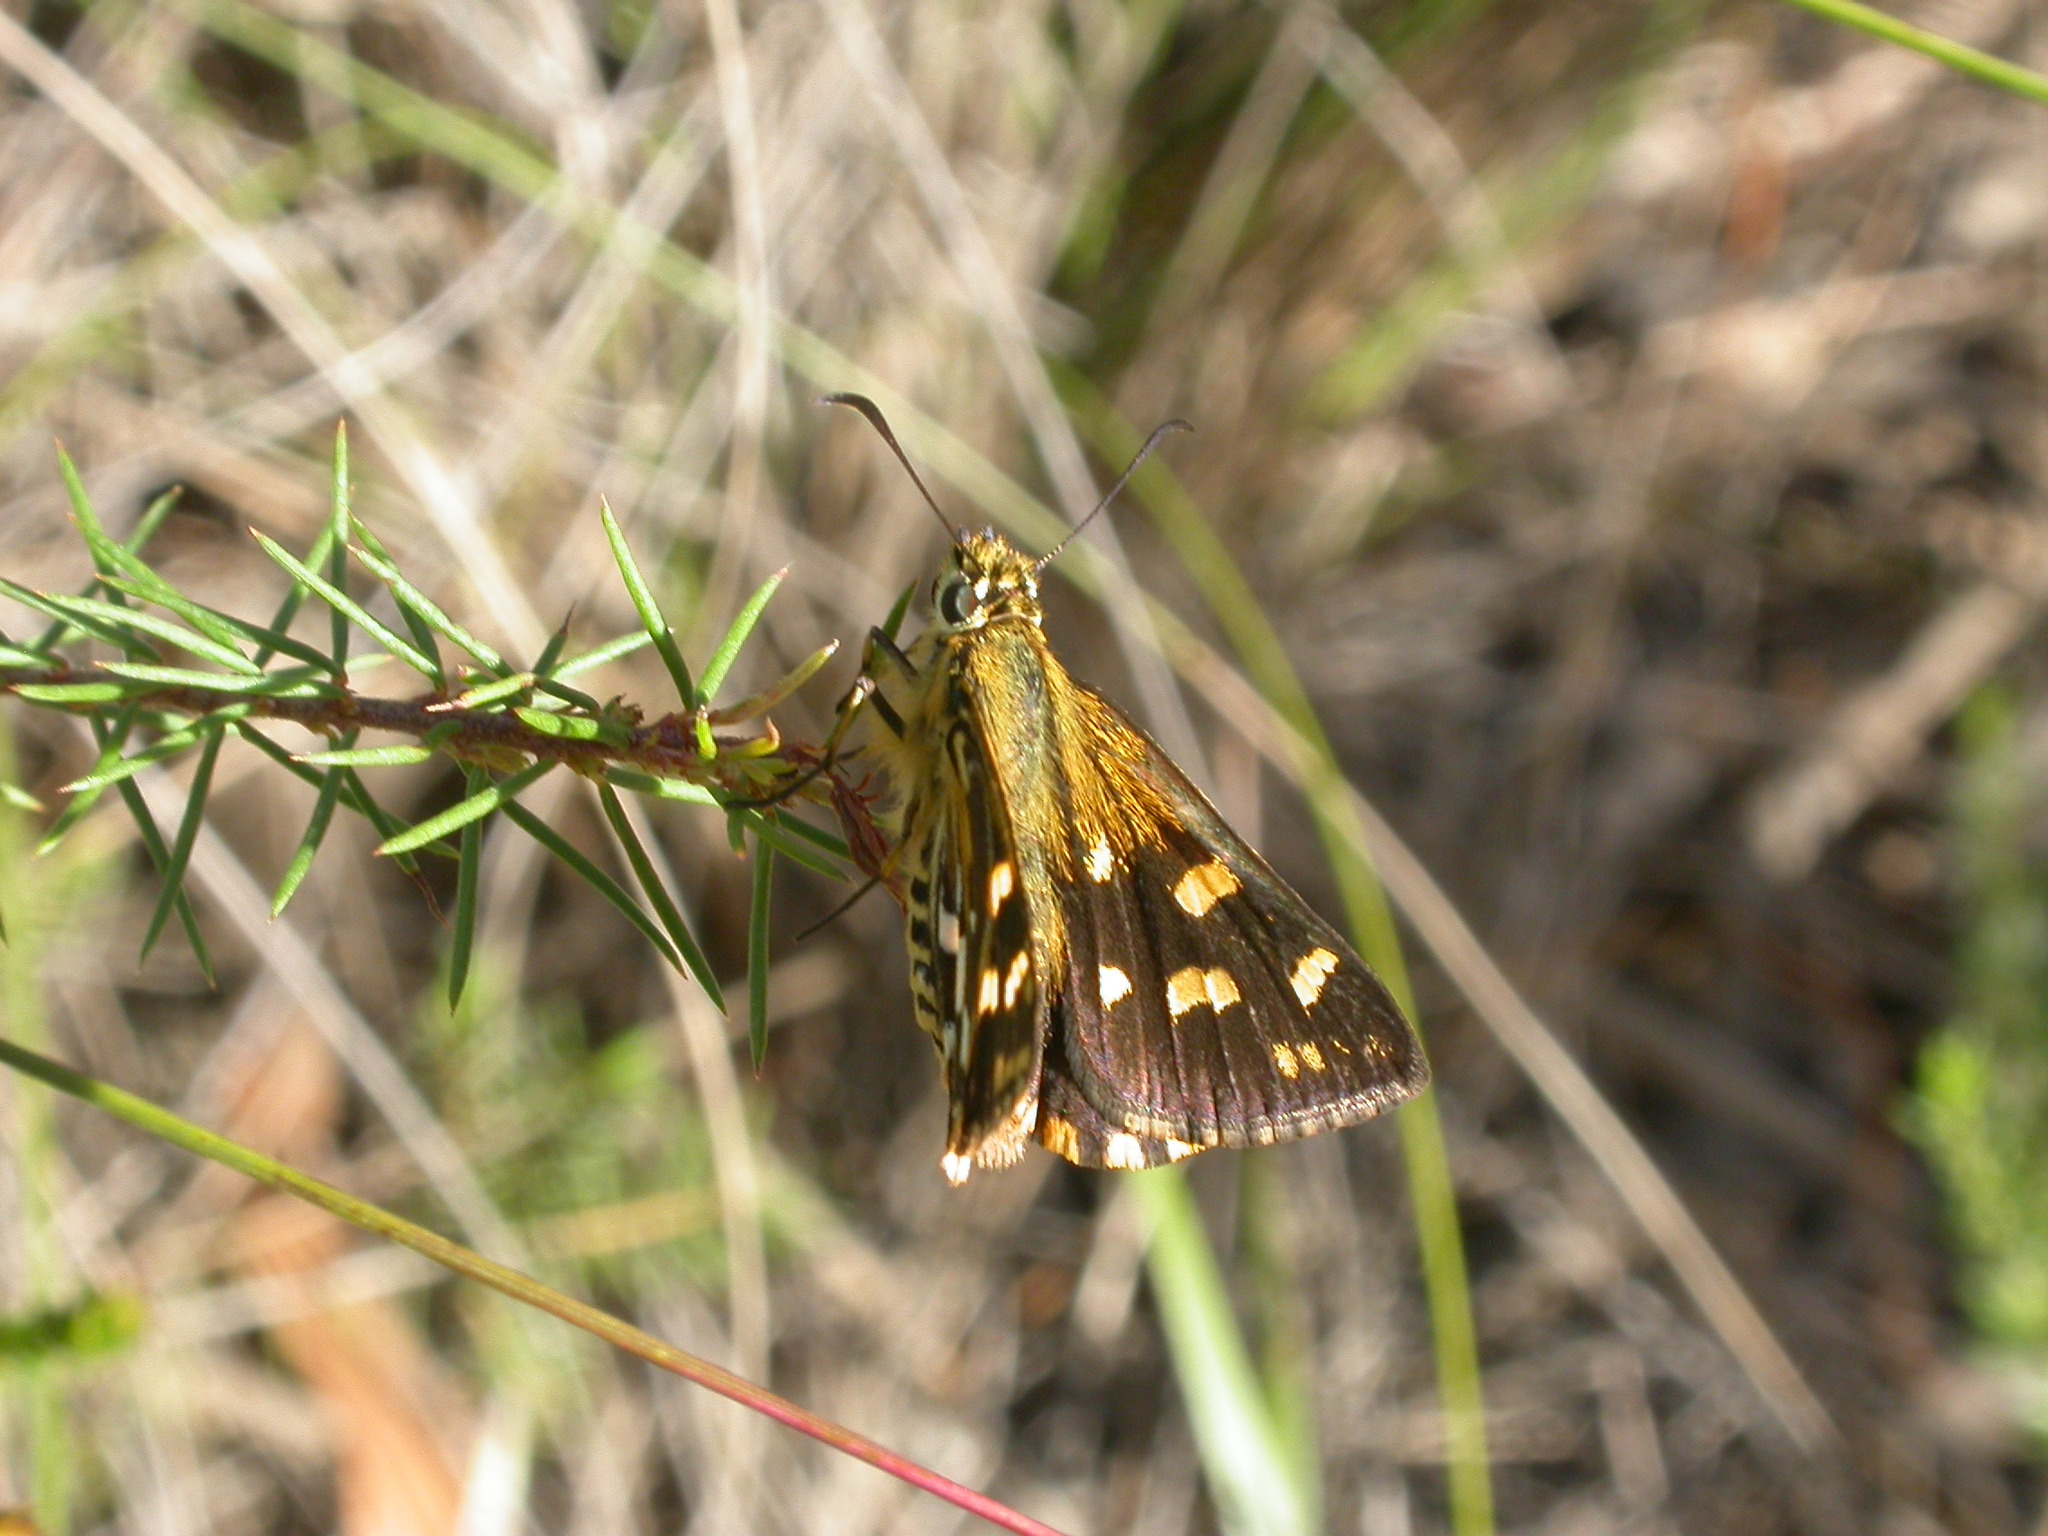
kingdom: Animalia
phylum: Arthropoda
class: Insecta
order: Lepidoptera
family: Hesperiidae
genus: Hesperilla
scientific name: Hesperilla crypsargyra
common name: Silver sedge-skipper
